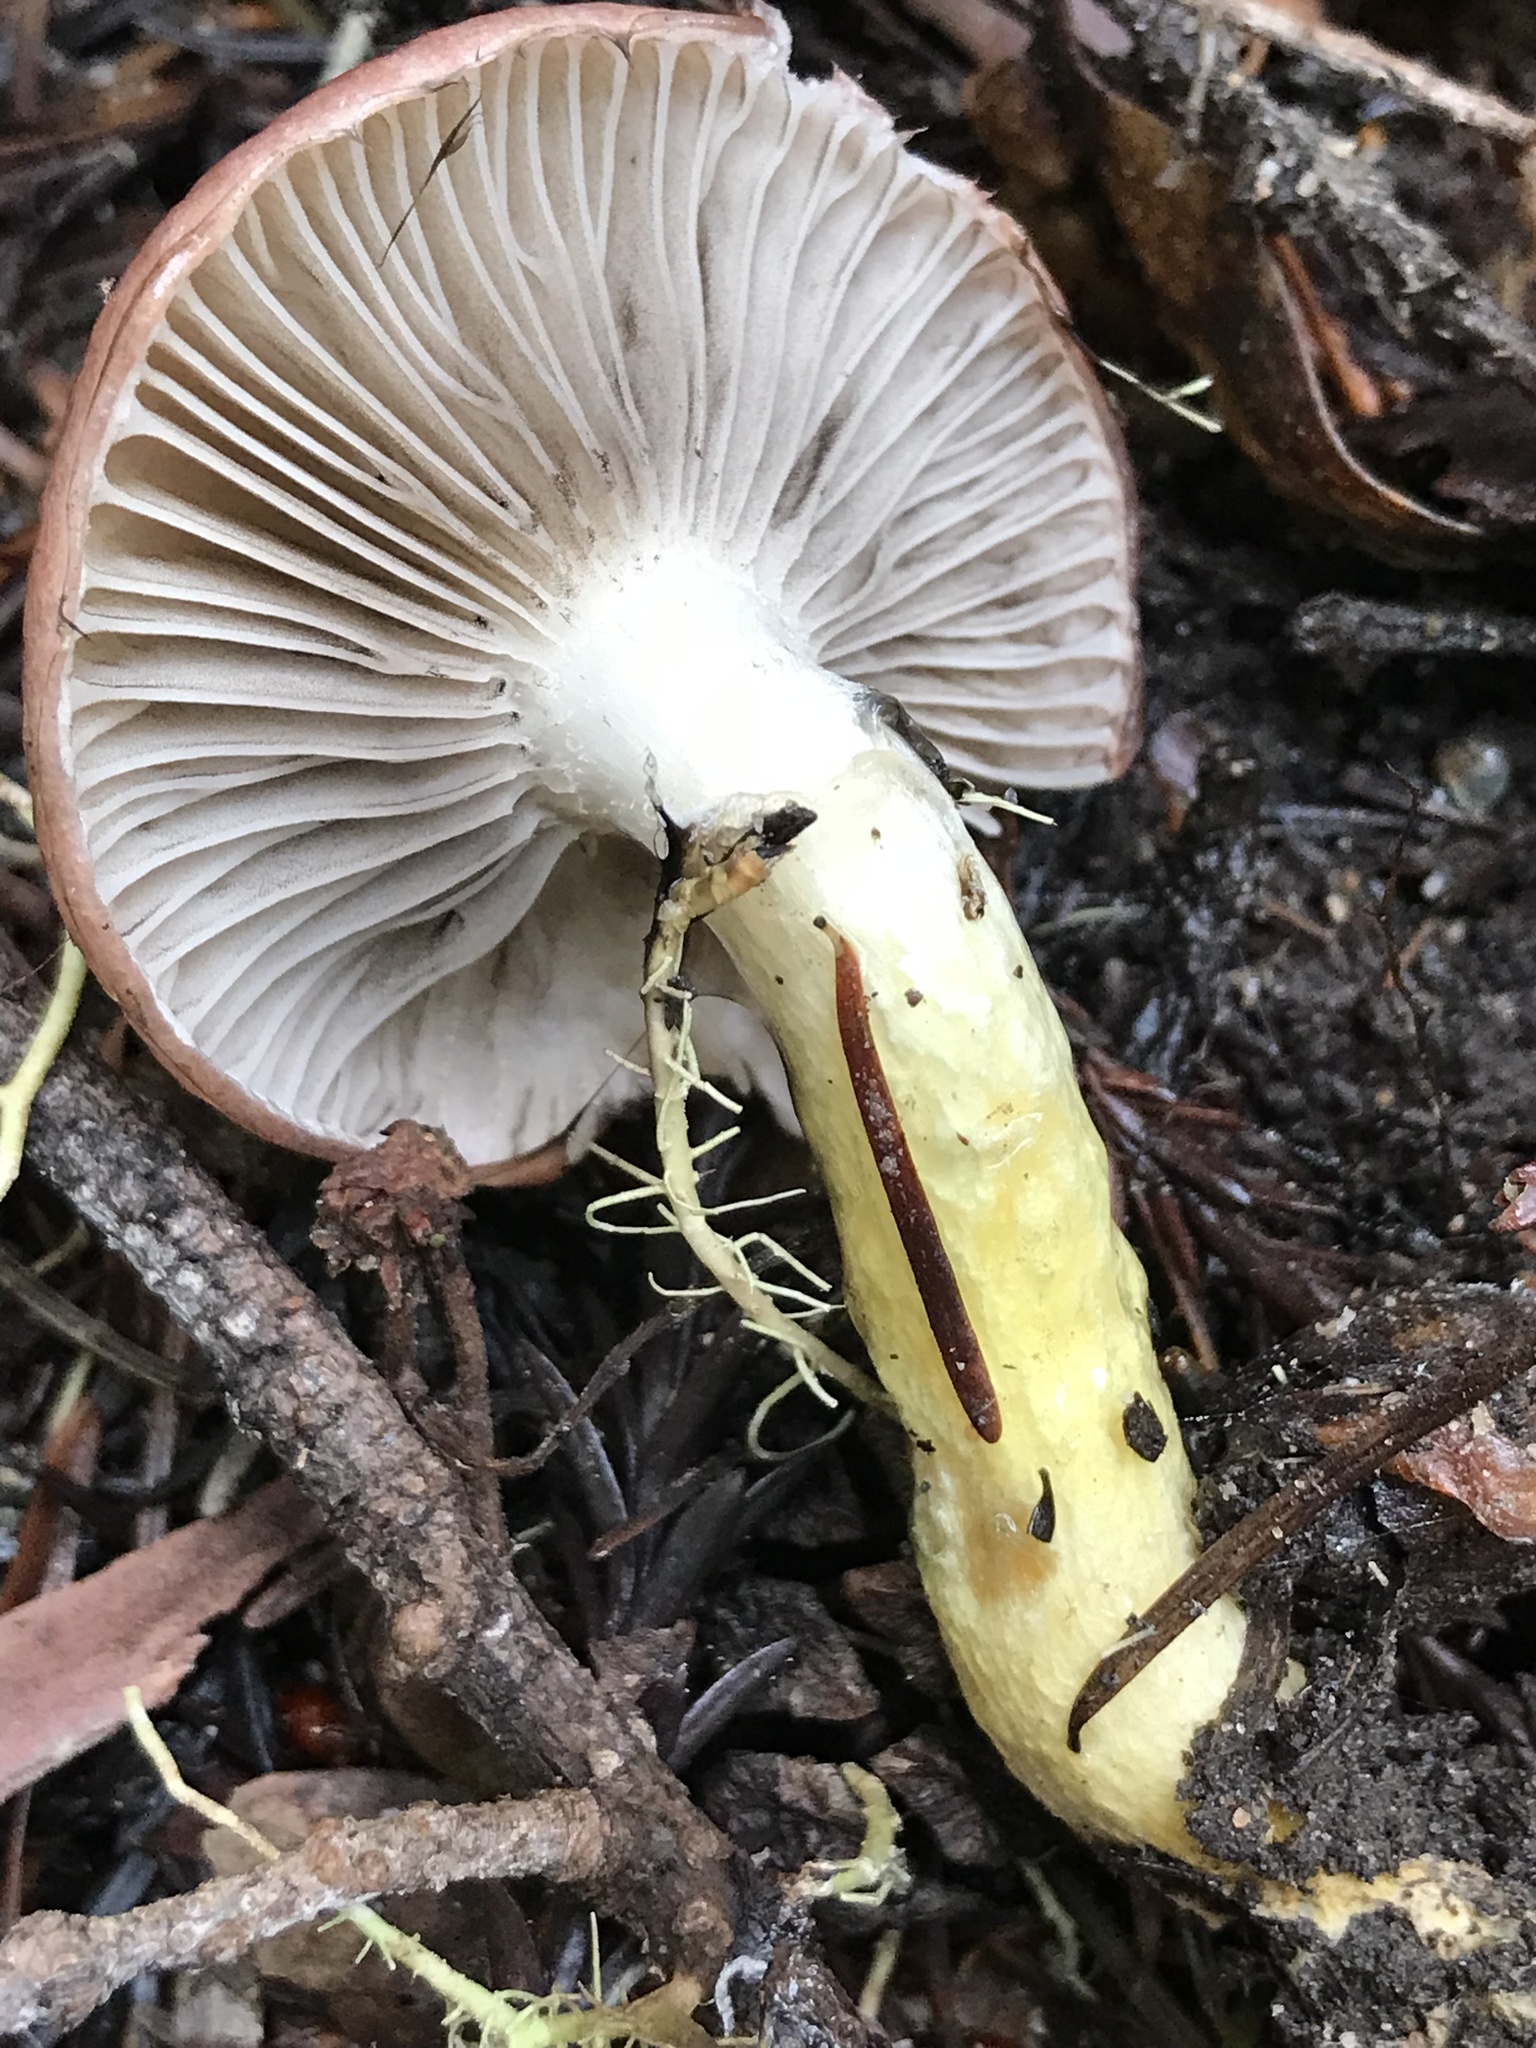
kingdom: Fungi
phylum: Basidiomycota
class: Agaricomycetes
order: Boletales
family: Gomphidiaceae
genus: Gomphidius
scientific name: Gomphidius subroseus
